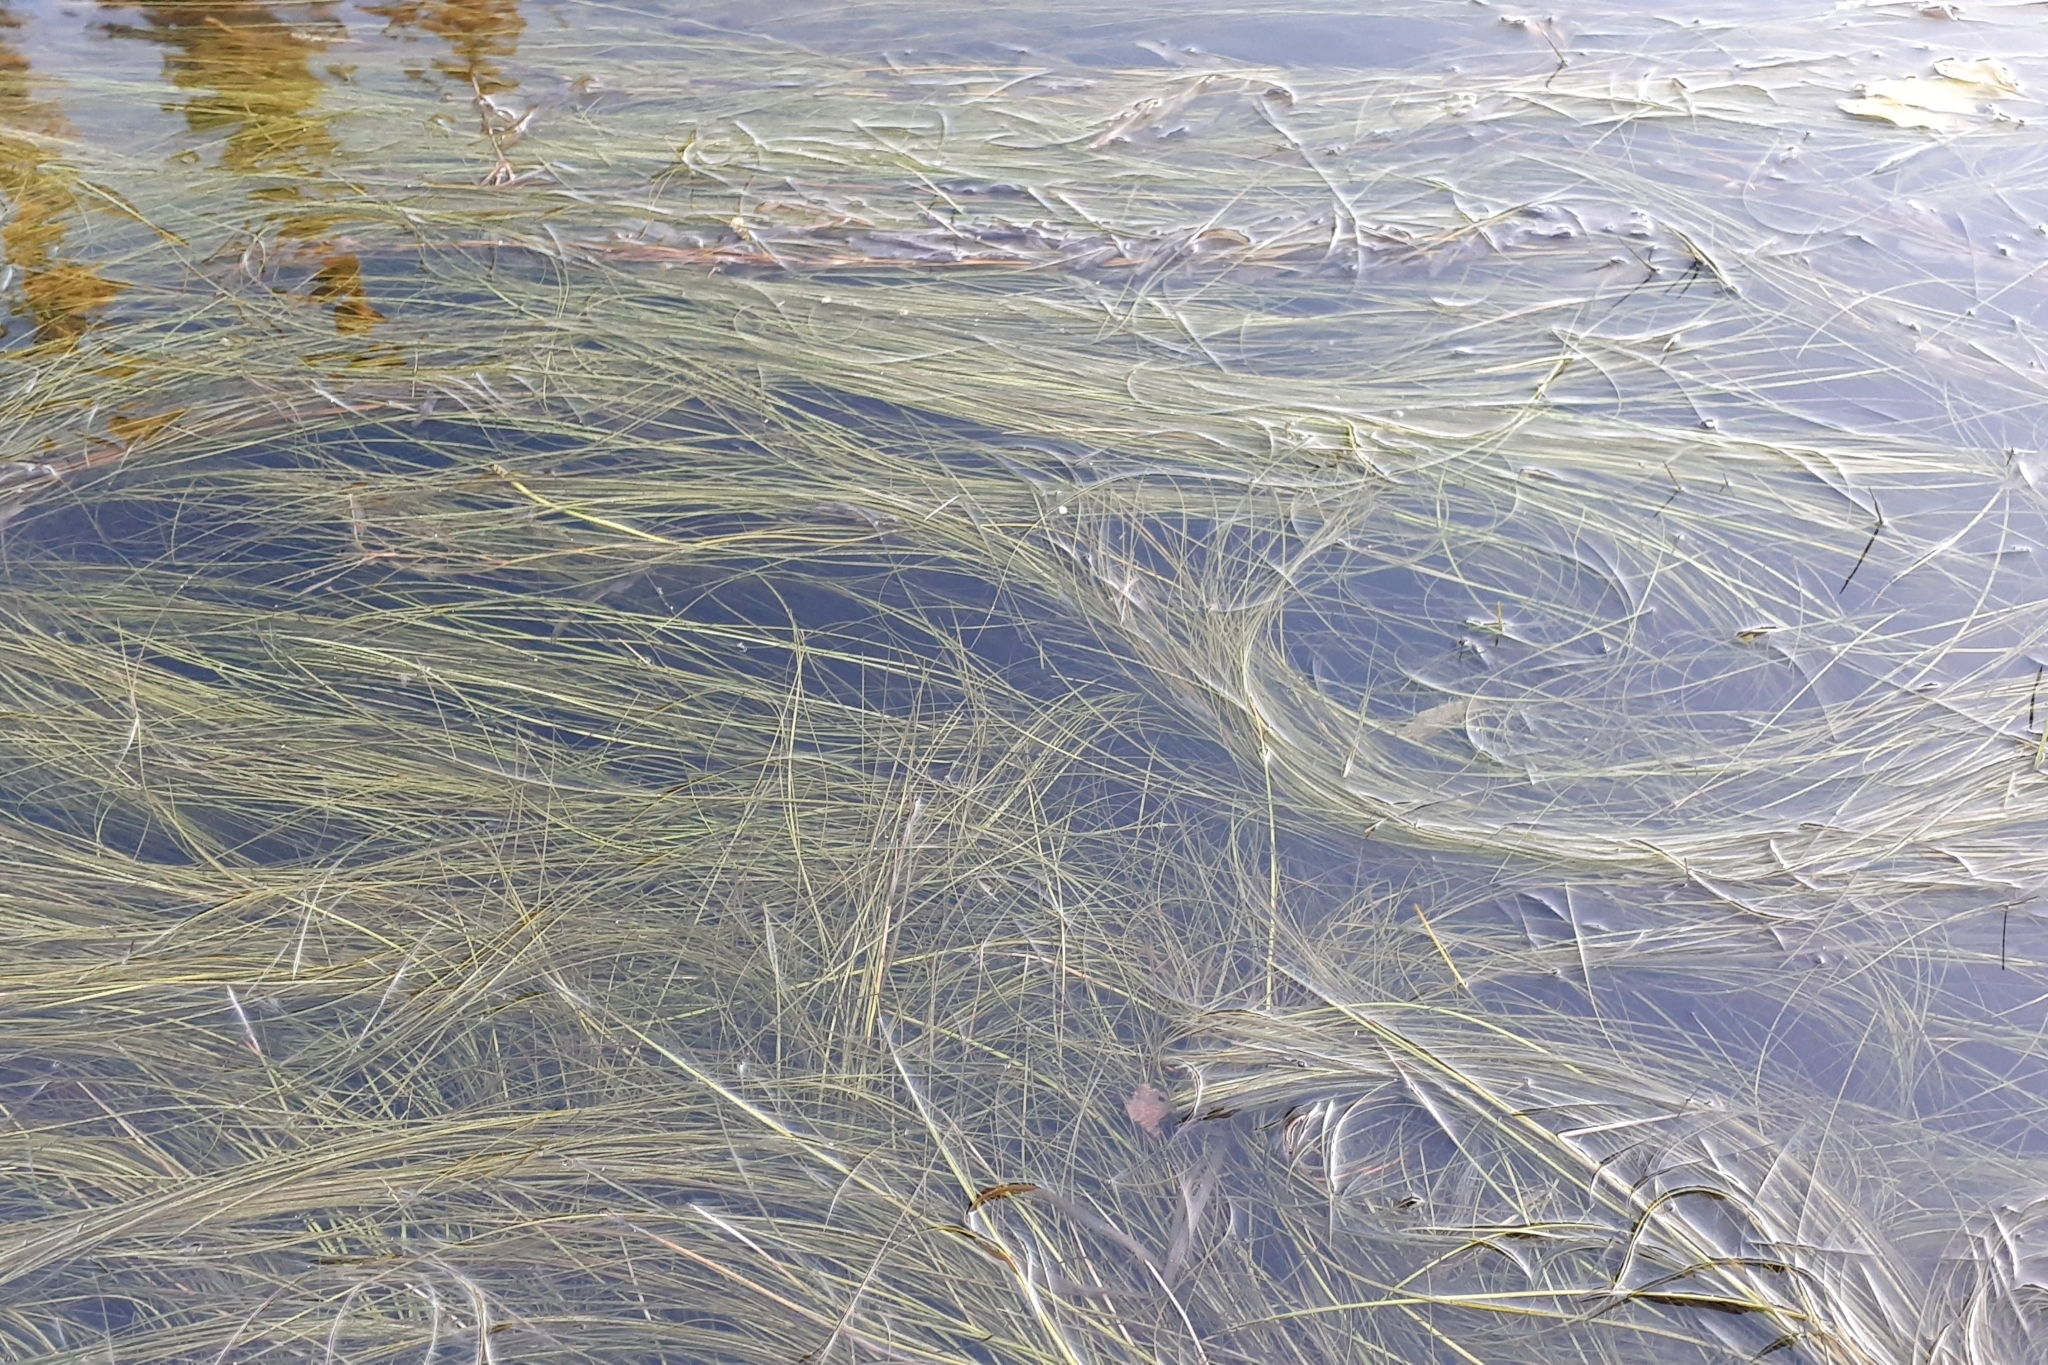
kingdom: Plantae
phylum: Tracheophyta
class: Liliopsida
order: Poales
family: Cyperaceae
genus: Schoenoplectus
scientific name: Schoenoplectus subterminalis
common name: Swaying bulrush
